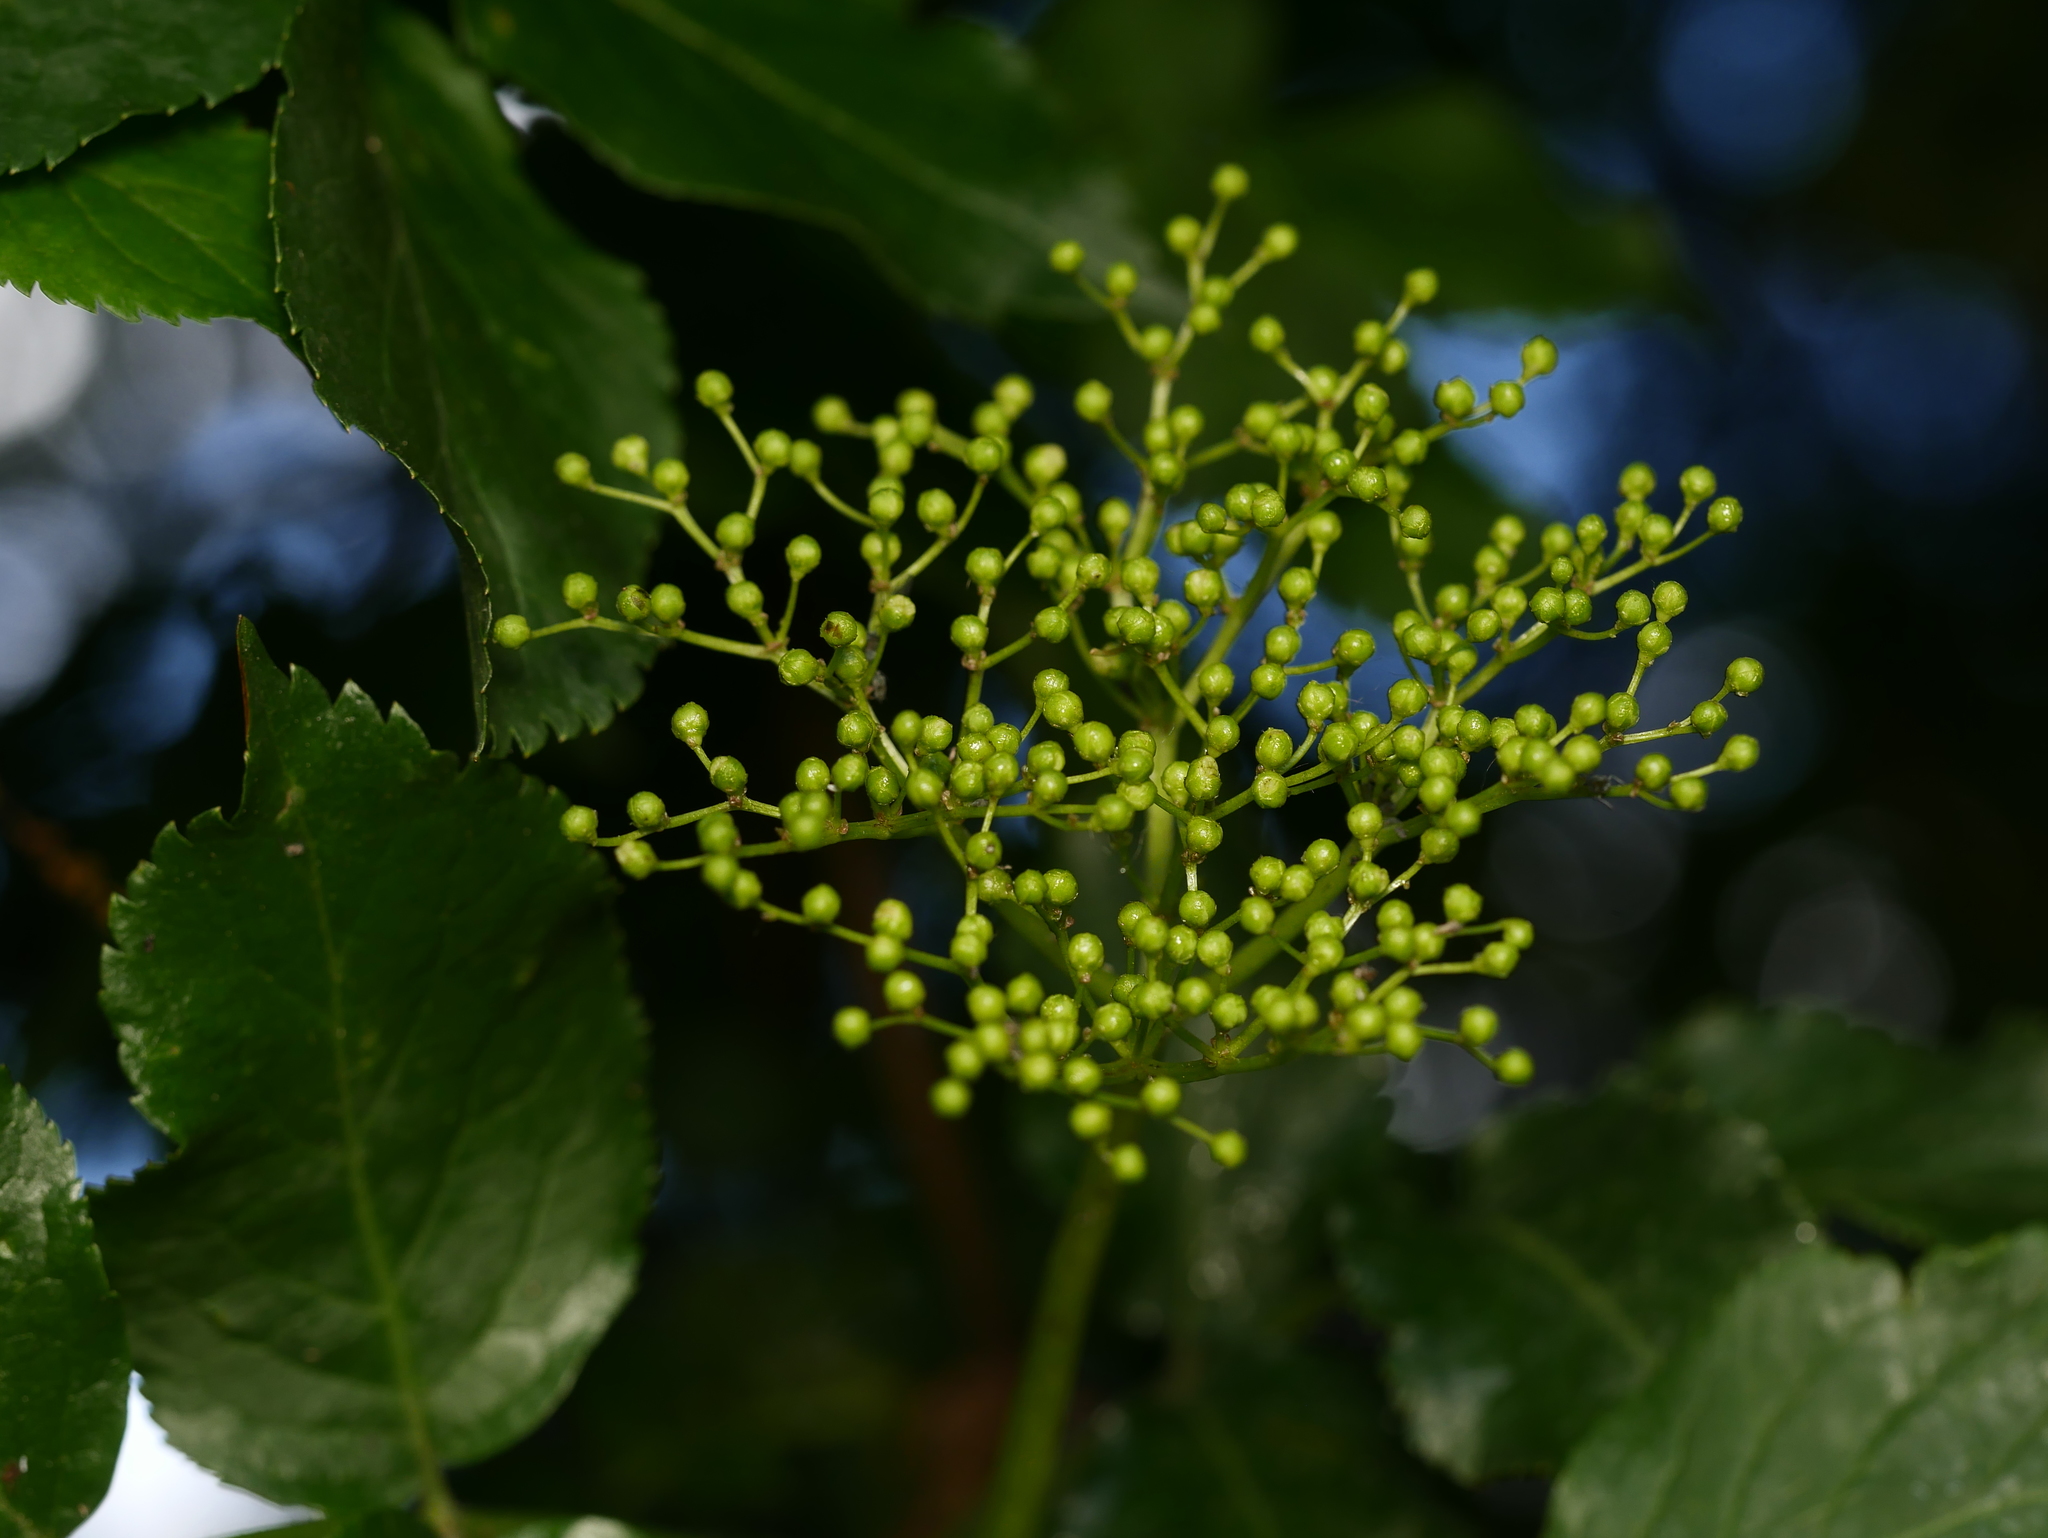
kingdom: Plantae
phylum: Tracheophyta
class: Magnoliopsida
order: Dipsacales
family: Viburnaceae
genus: Sambucus
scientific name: Sambucus nigra
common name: Elder
